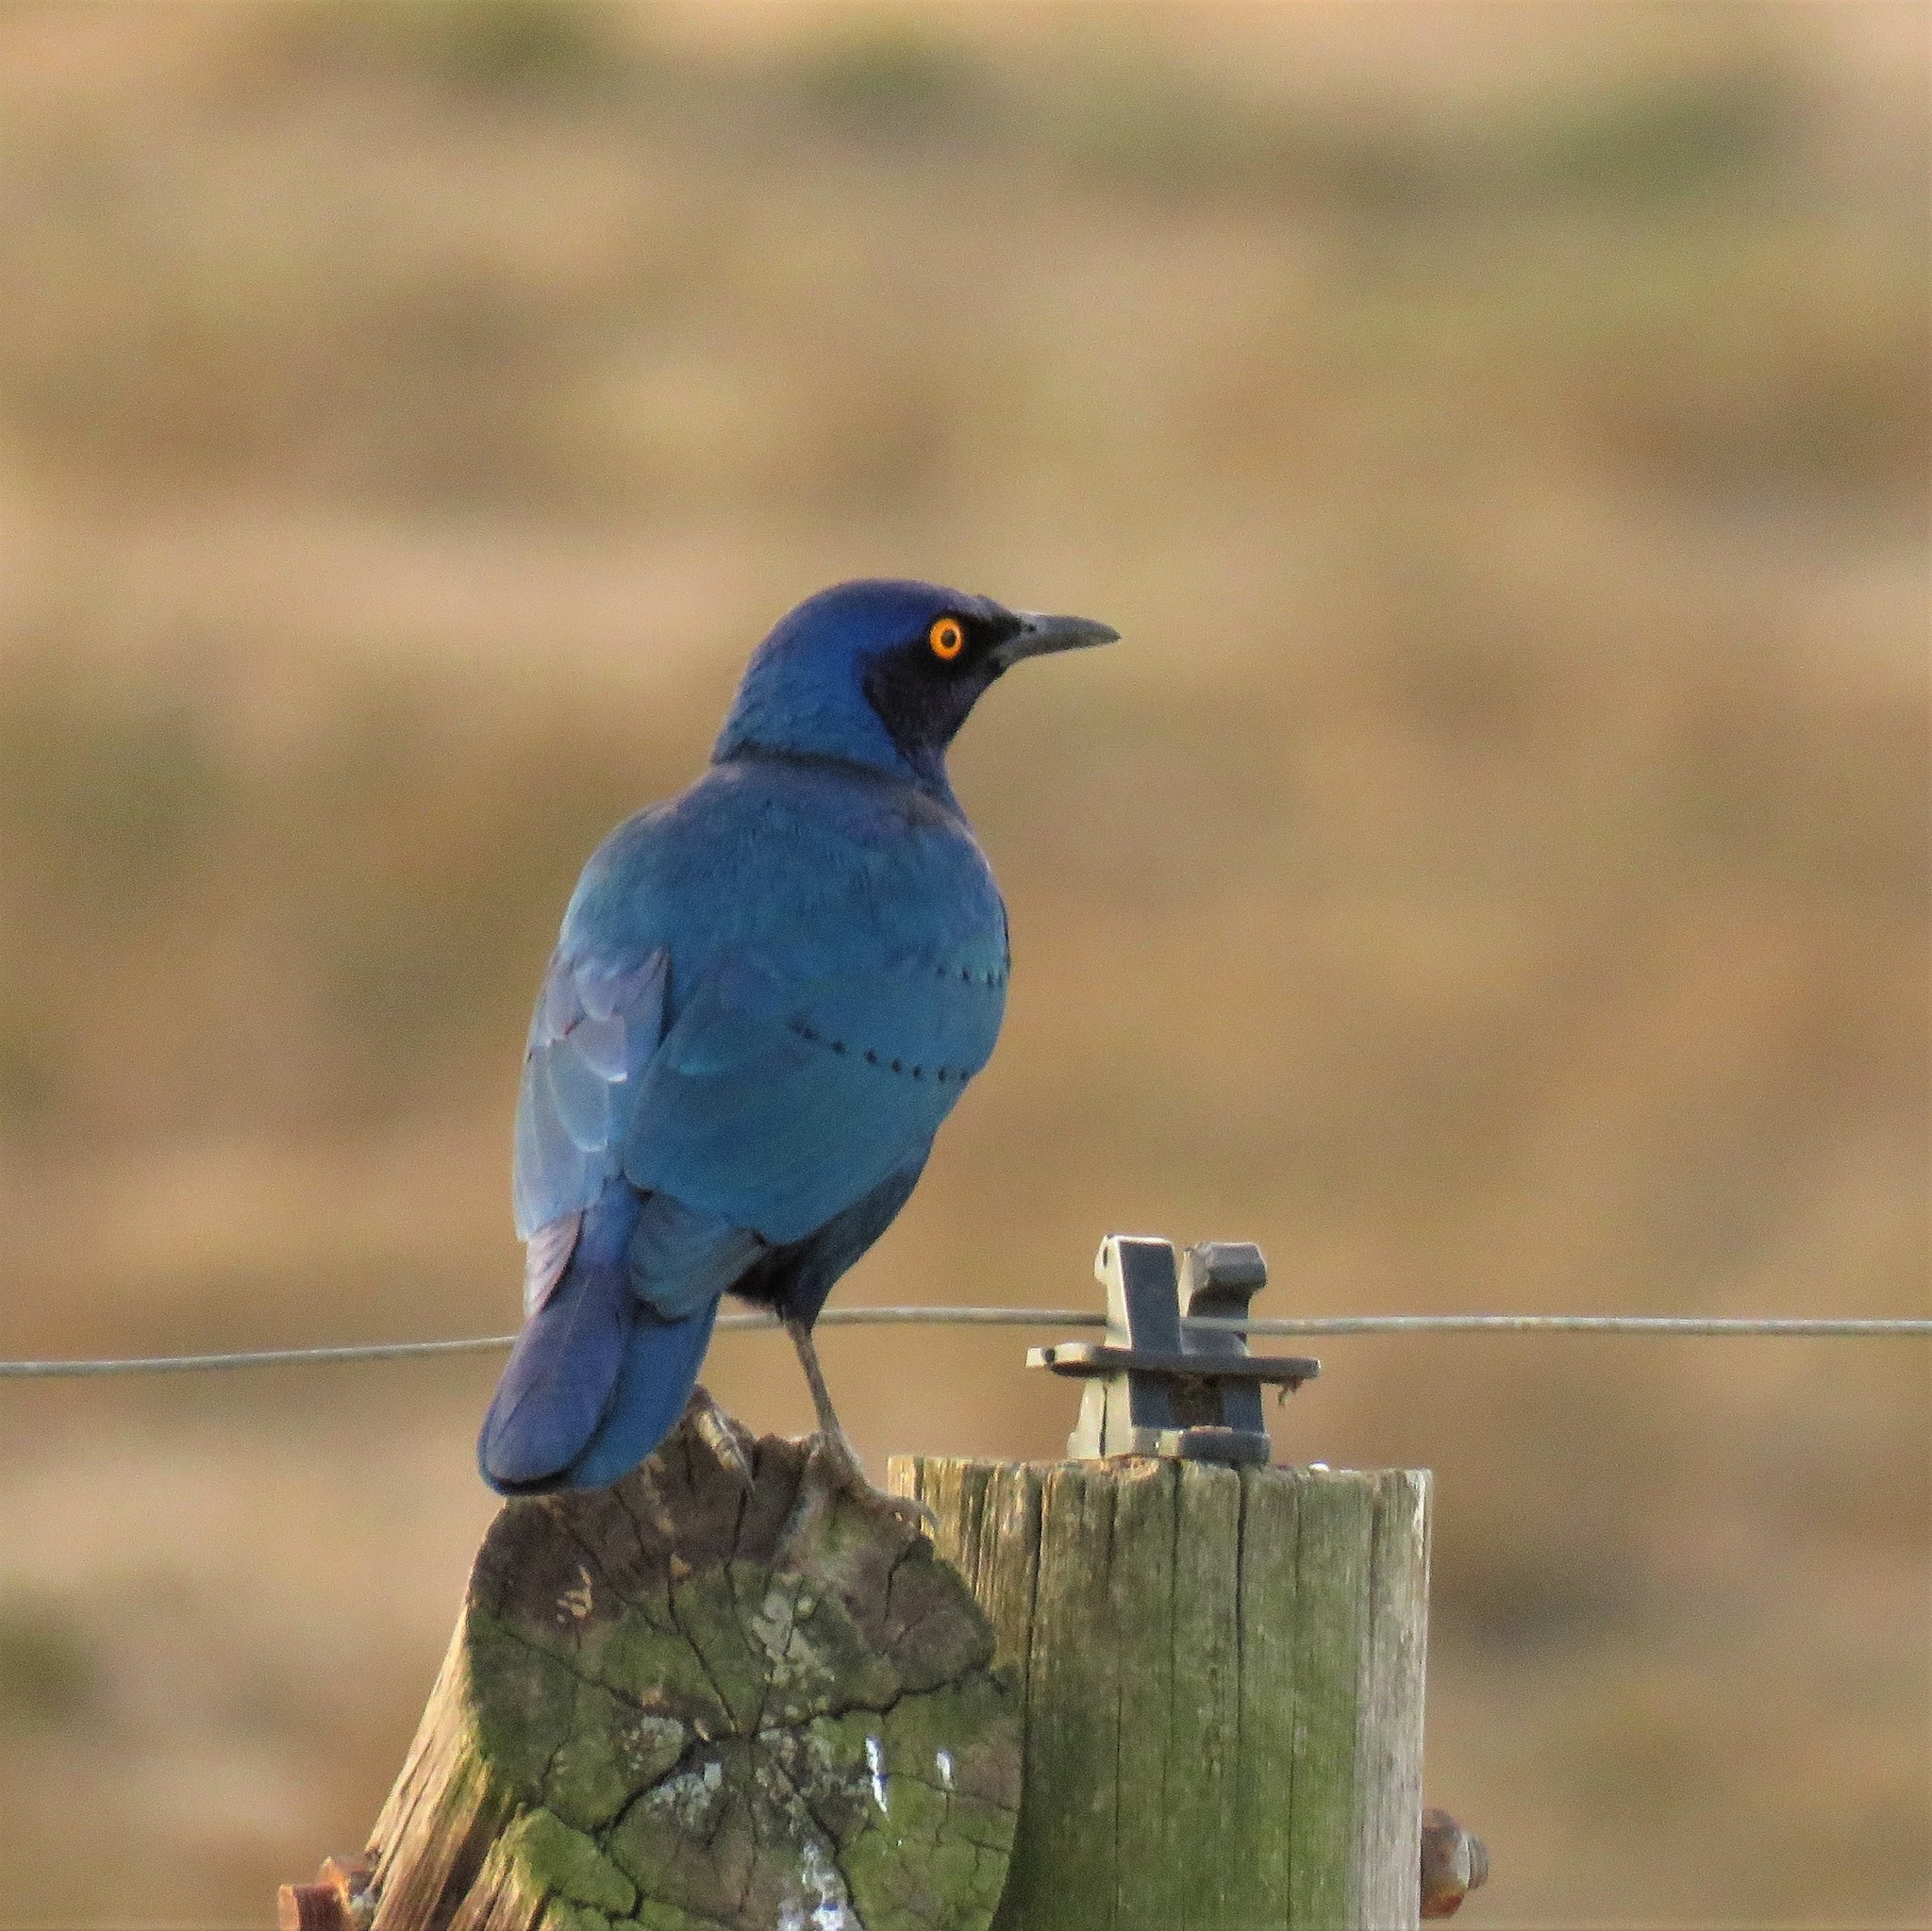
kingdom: Animalia
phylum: Chordata
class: Aves
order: Passeriformes
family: Sturnidae
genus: Lamprotornis
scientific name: Lamprotornis nitens
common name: Cape starling
